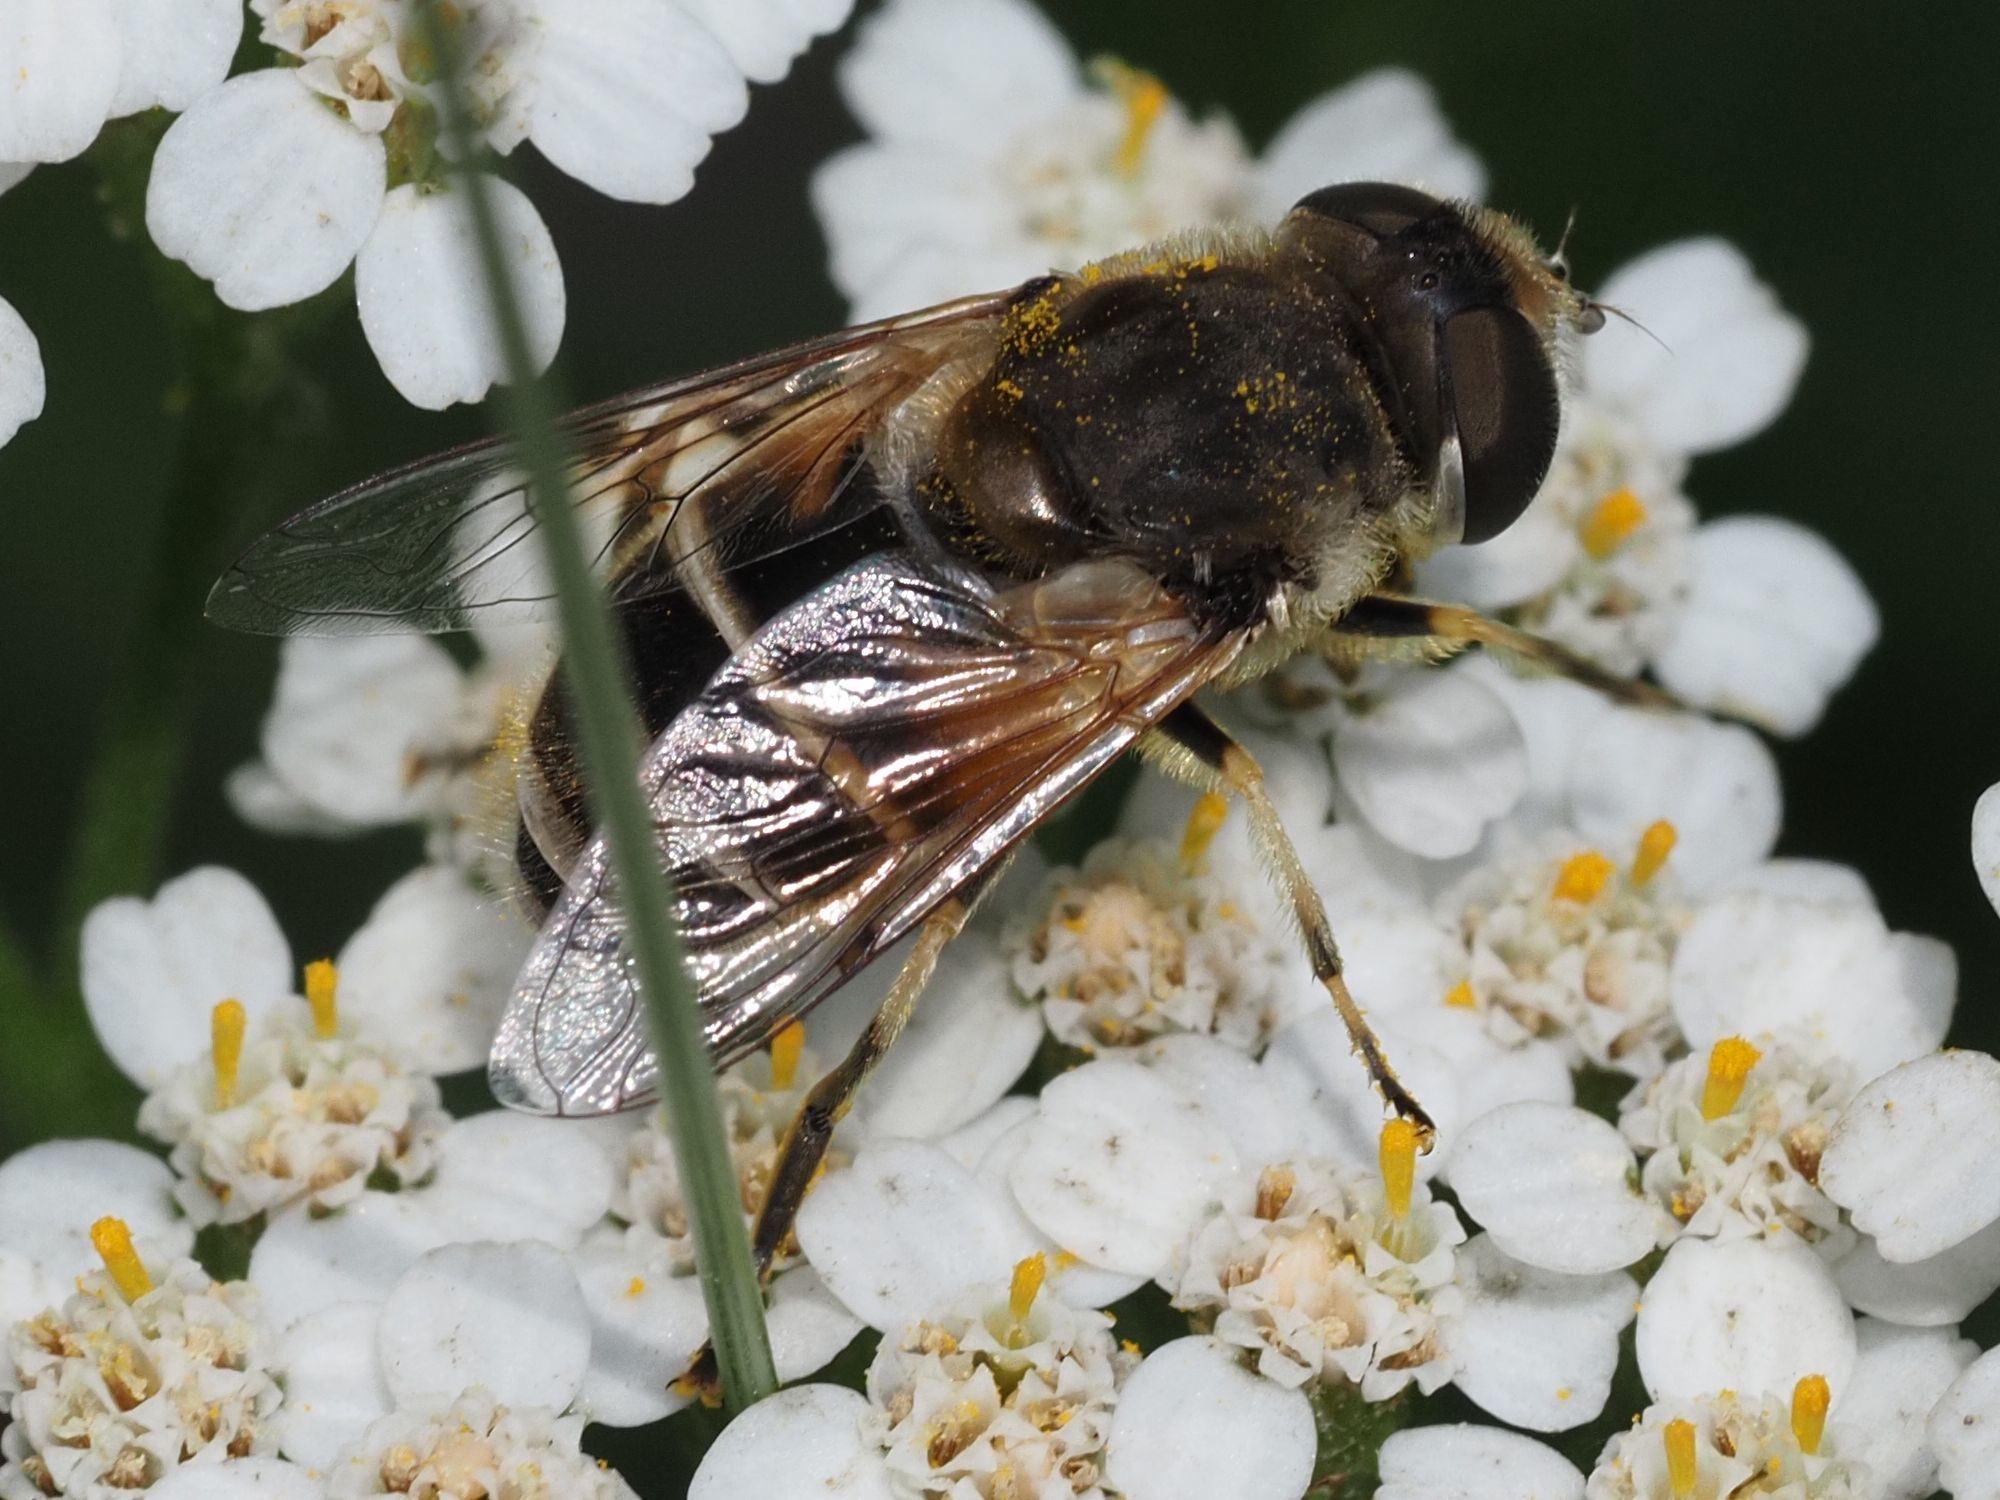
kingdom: Animalia
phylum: Arthropoda
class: Insecta
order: Diptera
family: Syrphidae
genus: Eristalis
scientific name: Eristalis arbustorum
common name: Hover fly
